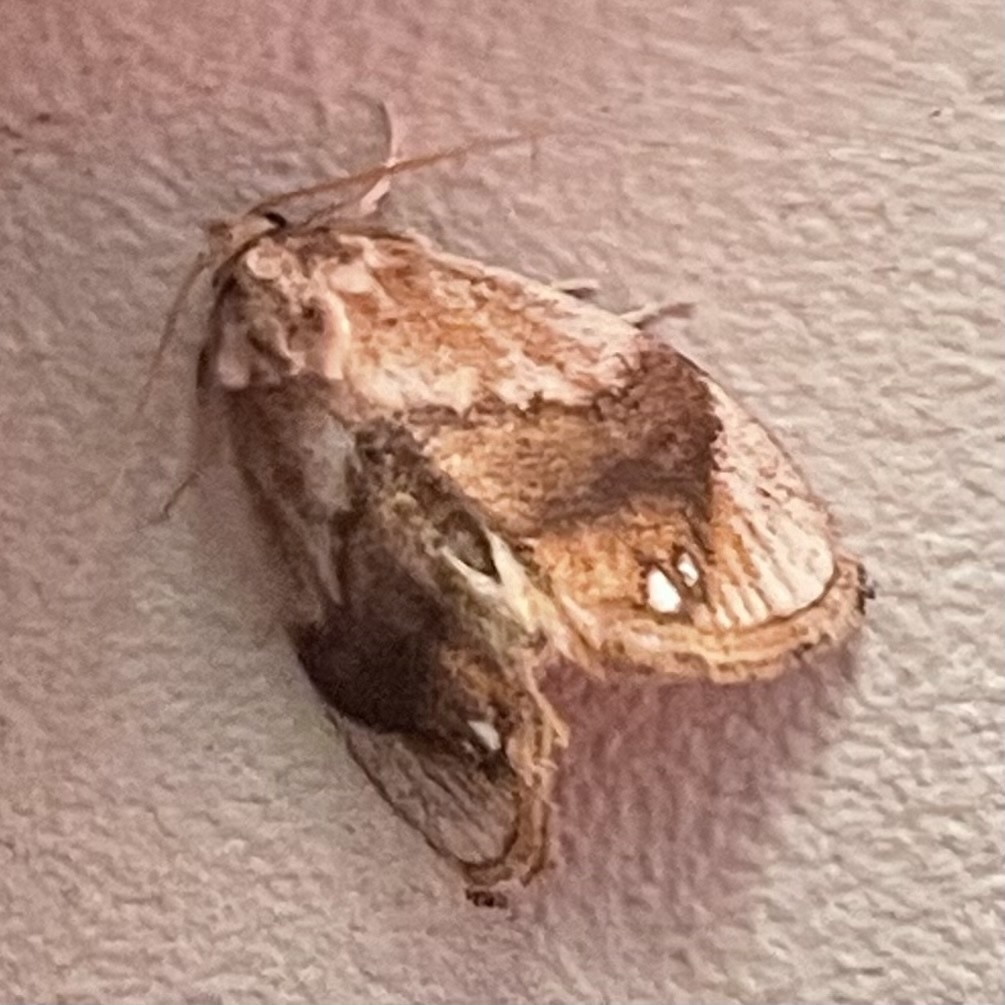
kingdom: Animalia
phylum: Arthropoda
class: Insecta
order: Lepidoptera
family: Limacodidae
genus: Packardia
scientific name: Packardia geminata
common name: Jeweled tailed slug moth
